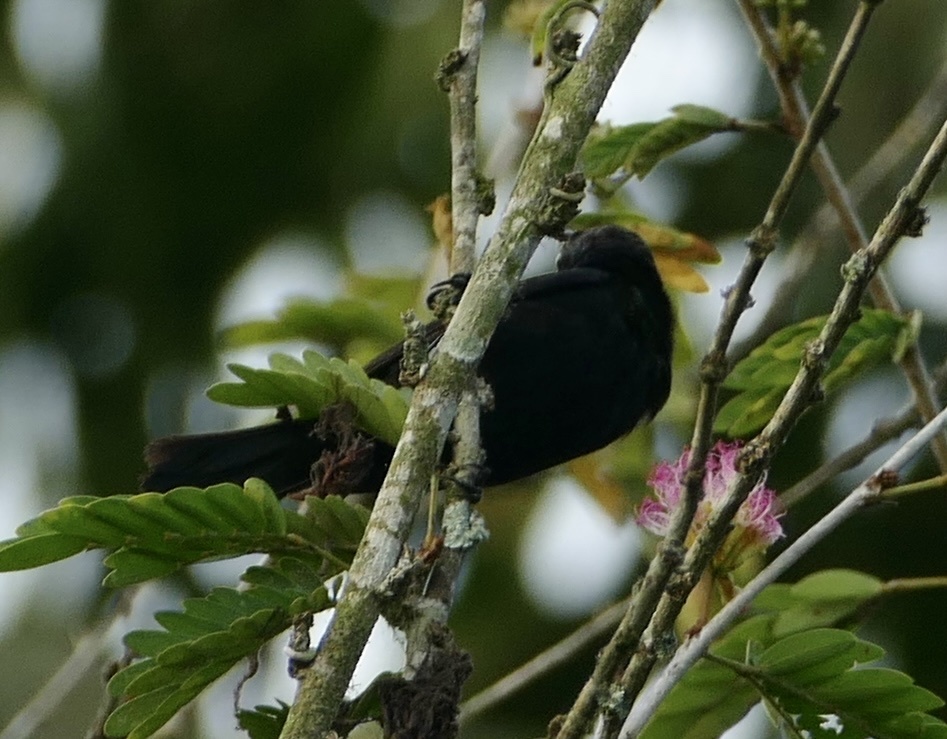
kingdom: Animalia
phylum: Chordata
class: Aves
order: Passeriformes
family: Nectariniidae
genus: Cinnyris
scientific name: Cinnyris cupreus
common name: Copper sunbird
